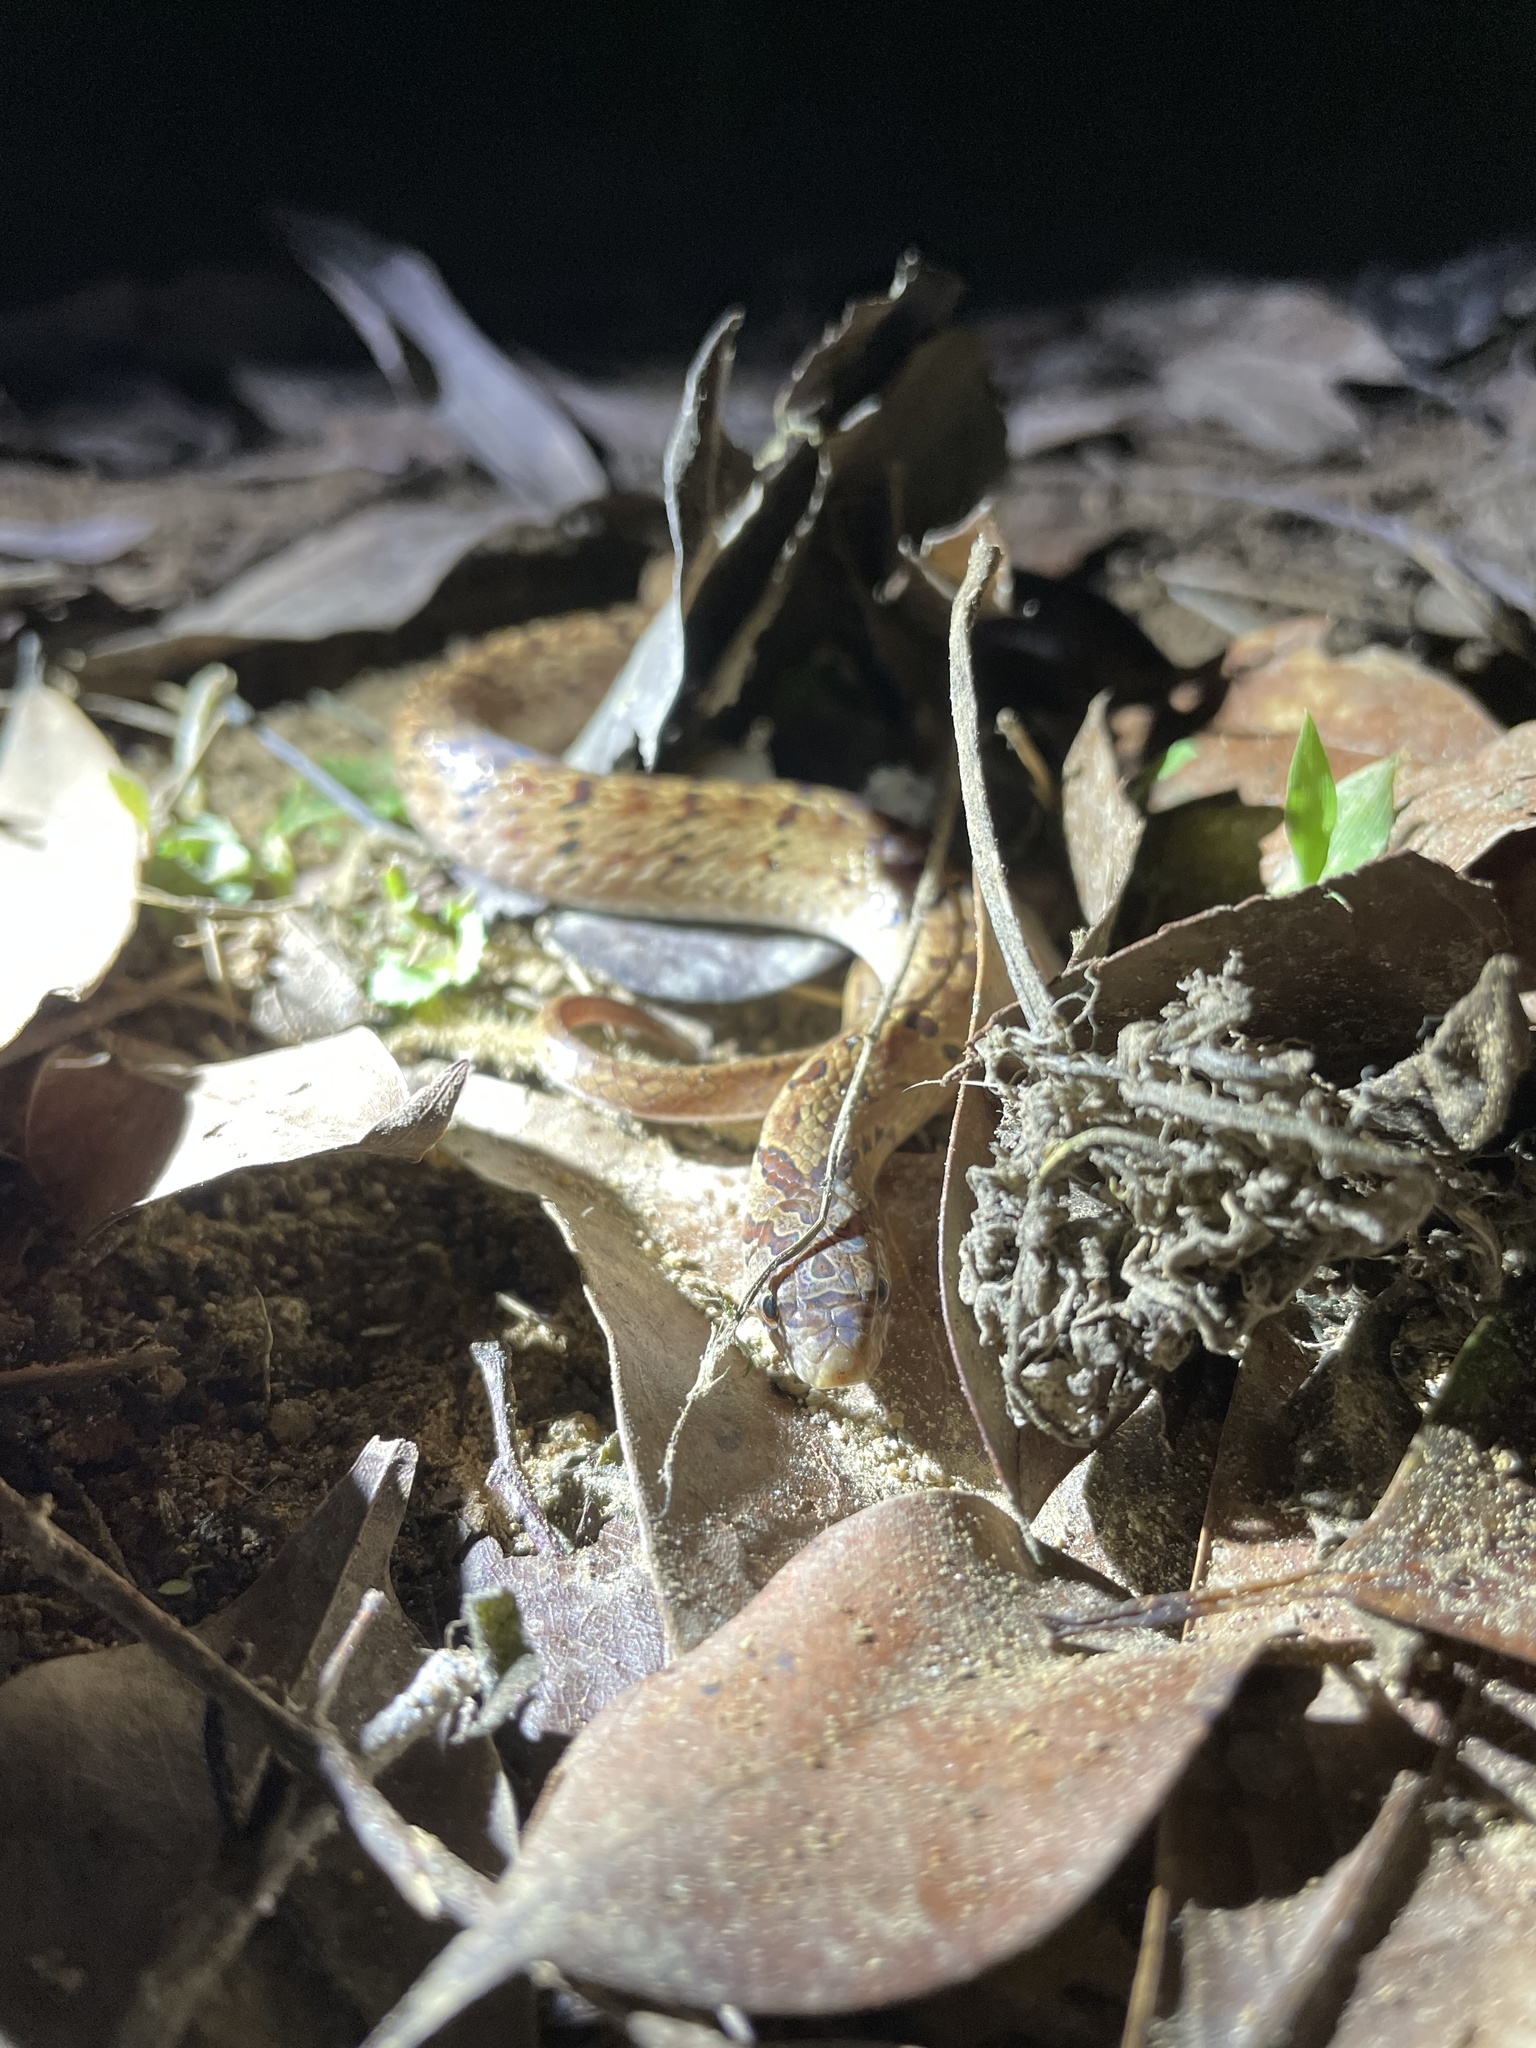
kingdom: Animalia
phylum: Chordata
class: Squamata
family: Colubridae
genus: Oligodon
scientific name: Oligodon formosanus
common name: Formosa kukri snake
